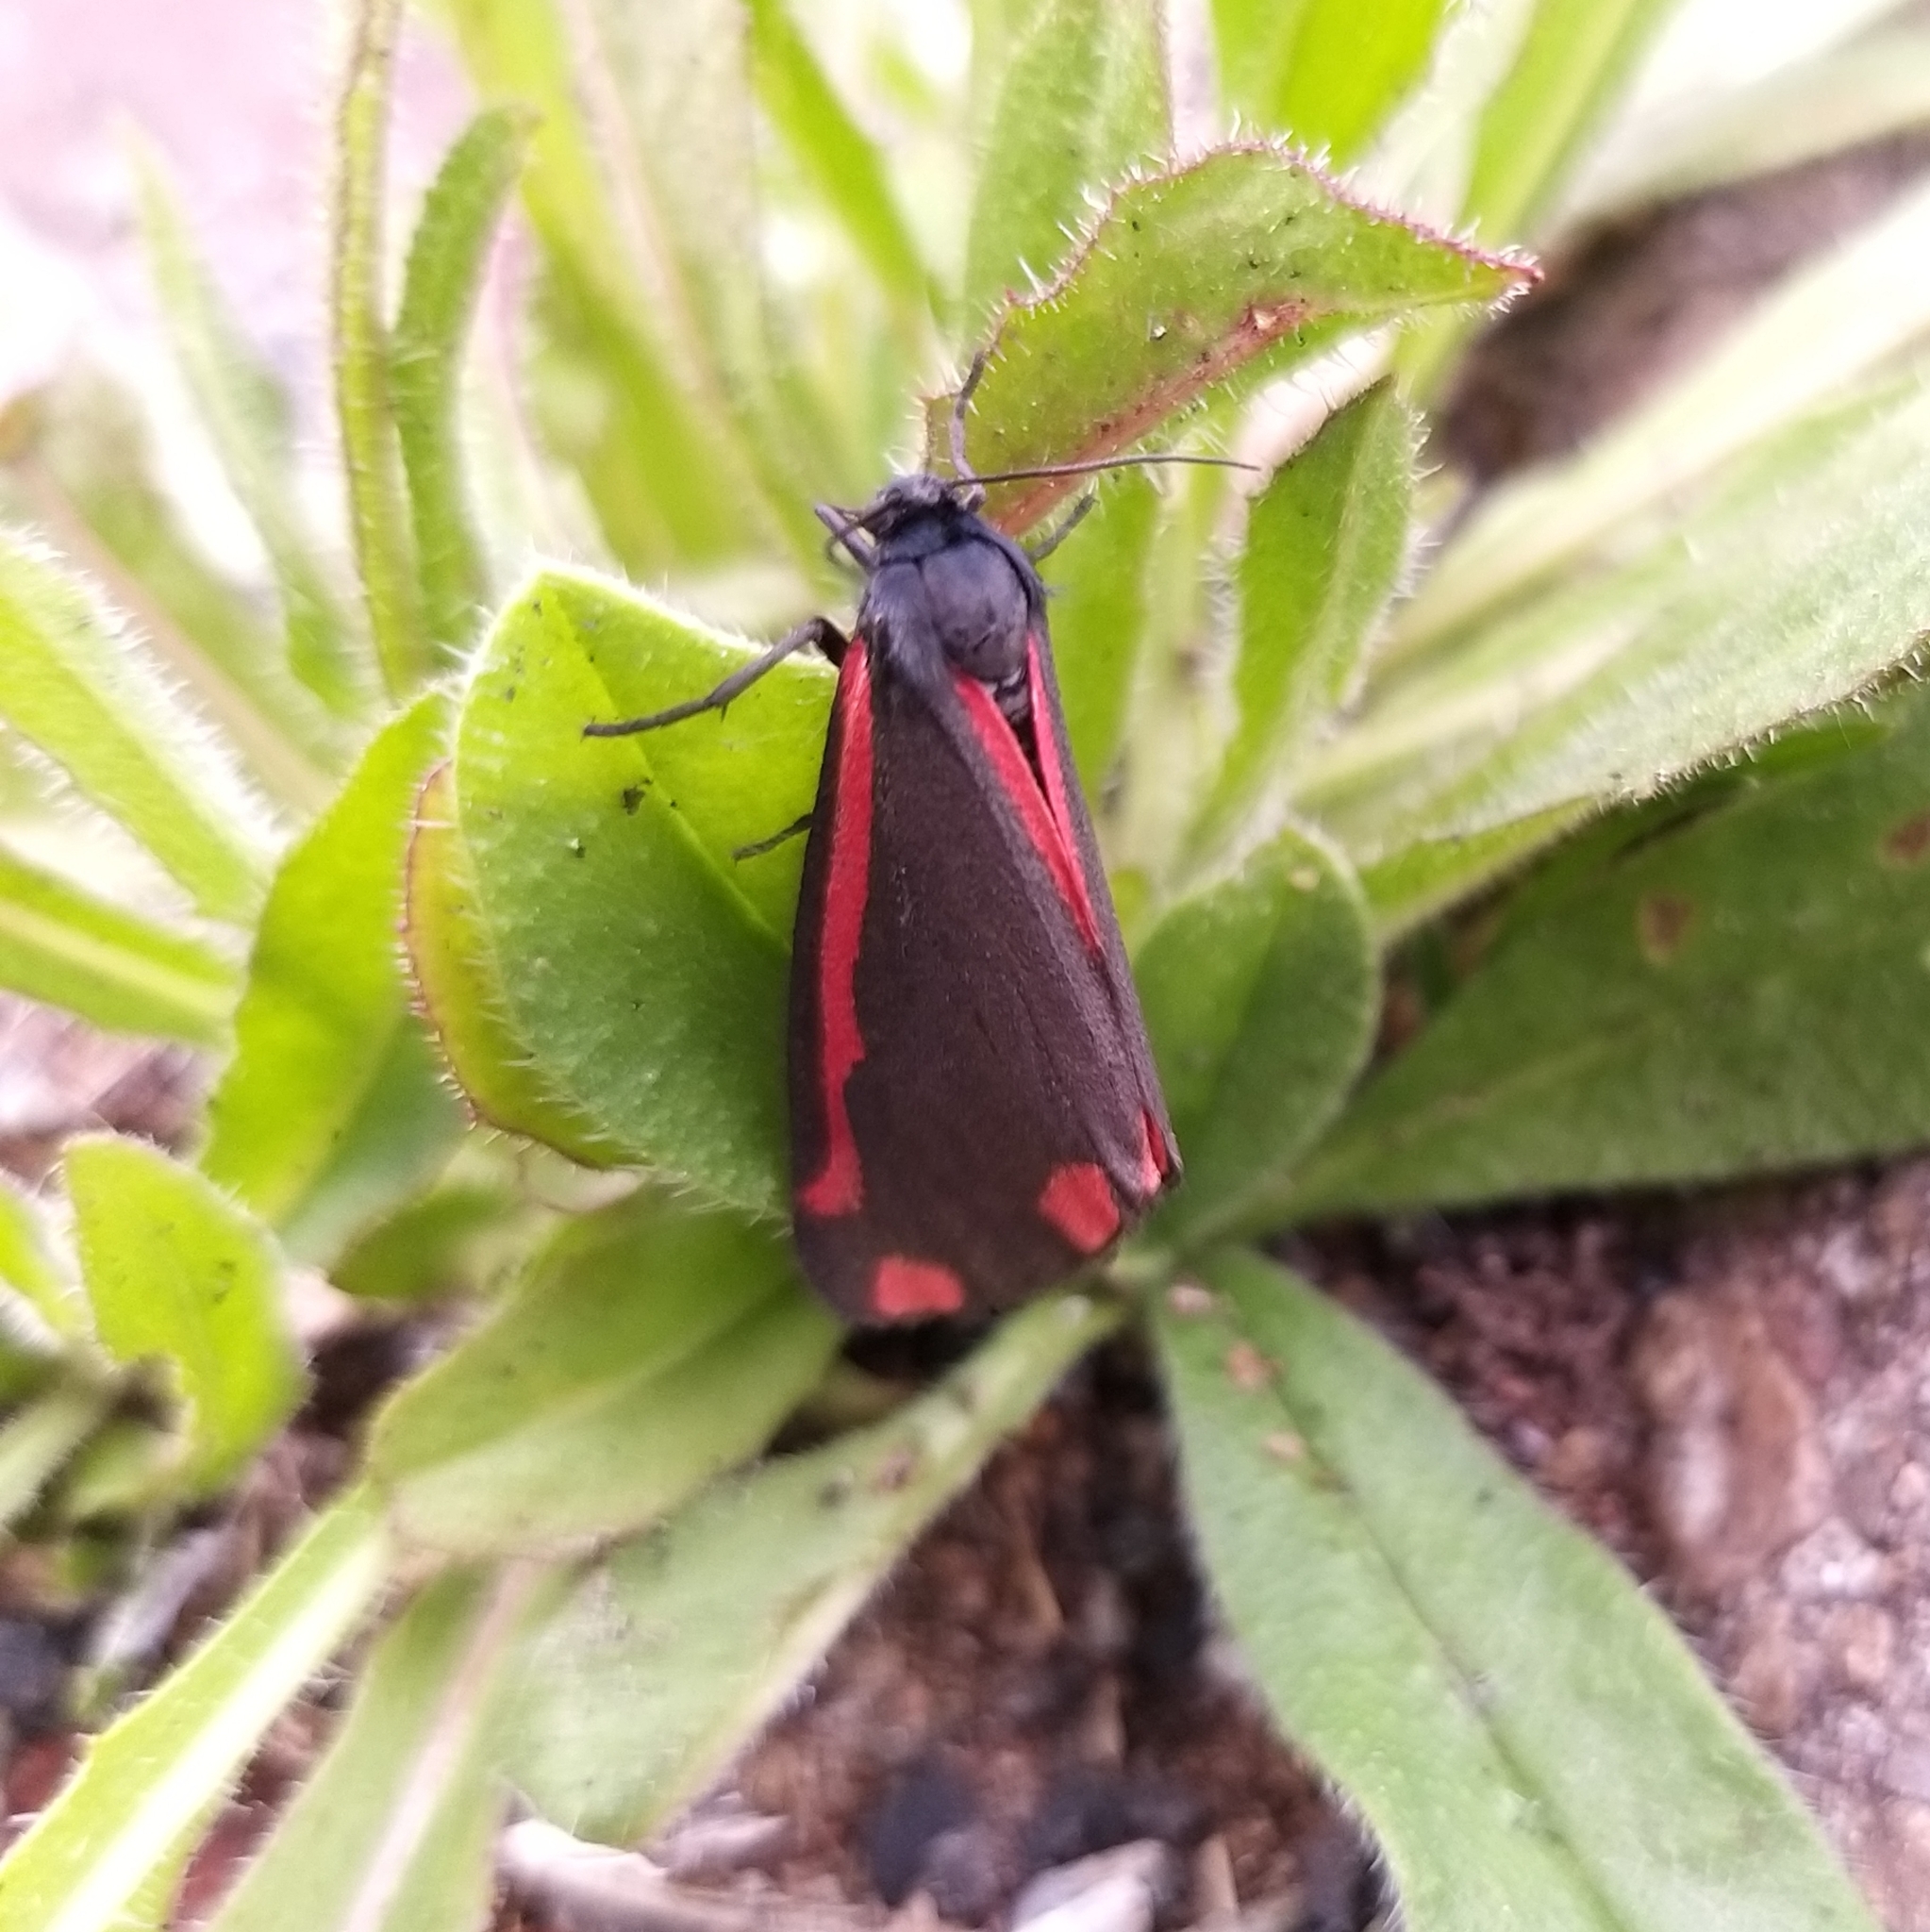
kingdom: Animalia
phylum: Arthropoda
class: Insecta
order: Lepidoptera
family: Erebidae
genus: Tyria
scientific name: Tyria jacobaeae
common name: Cinnabar
